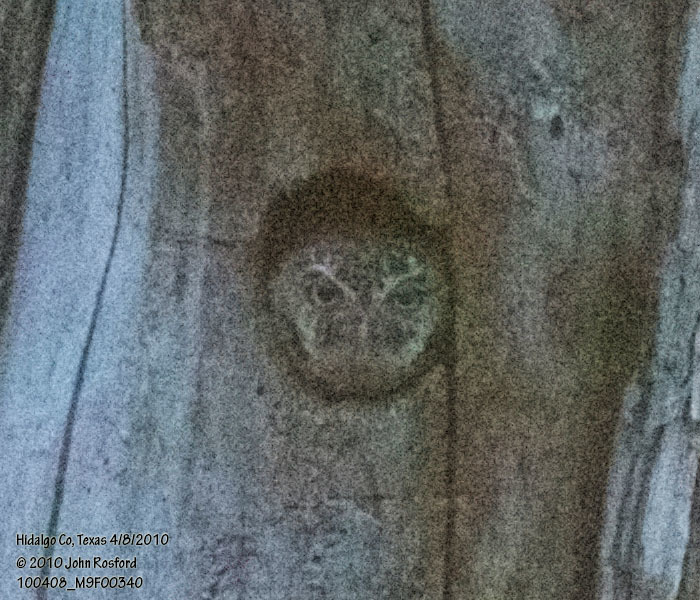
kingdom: Animalia
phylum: Chordata
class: Aves
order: Strigiformes
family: Strigidae
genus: Micrathene
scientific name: Micrathene whitneyi
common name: Elf owl
